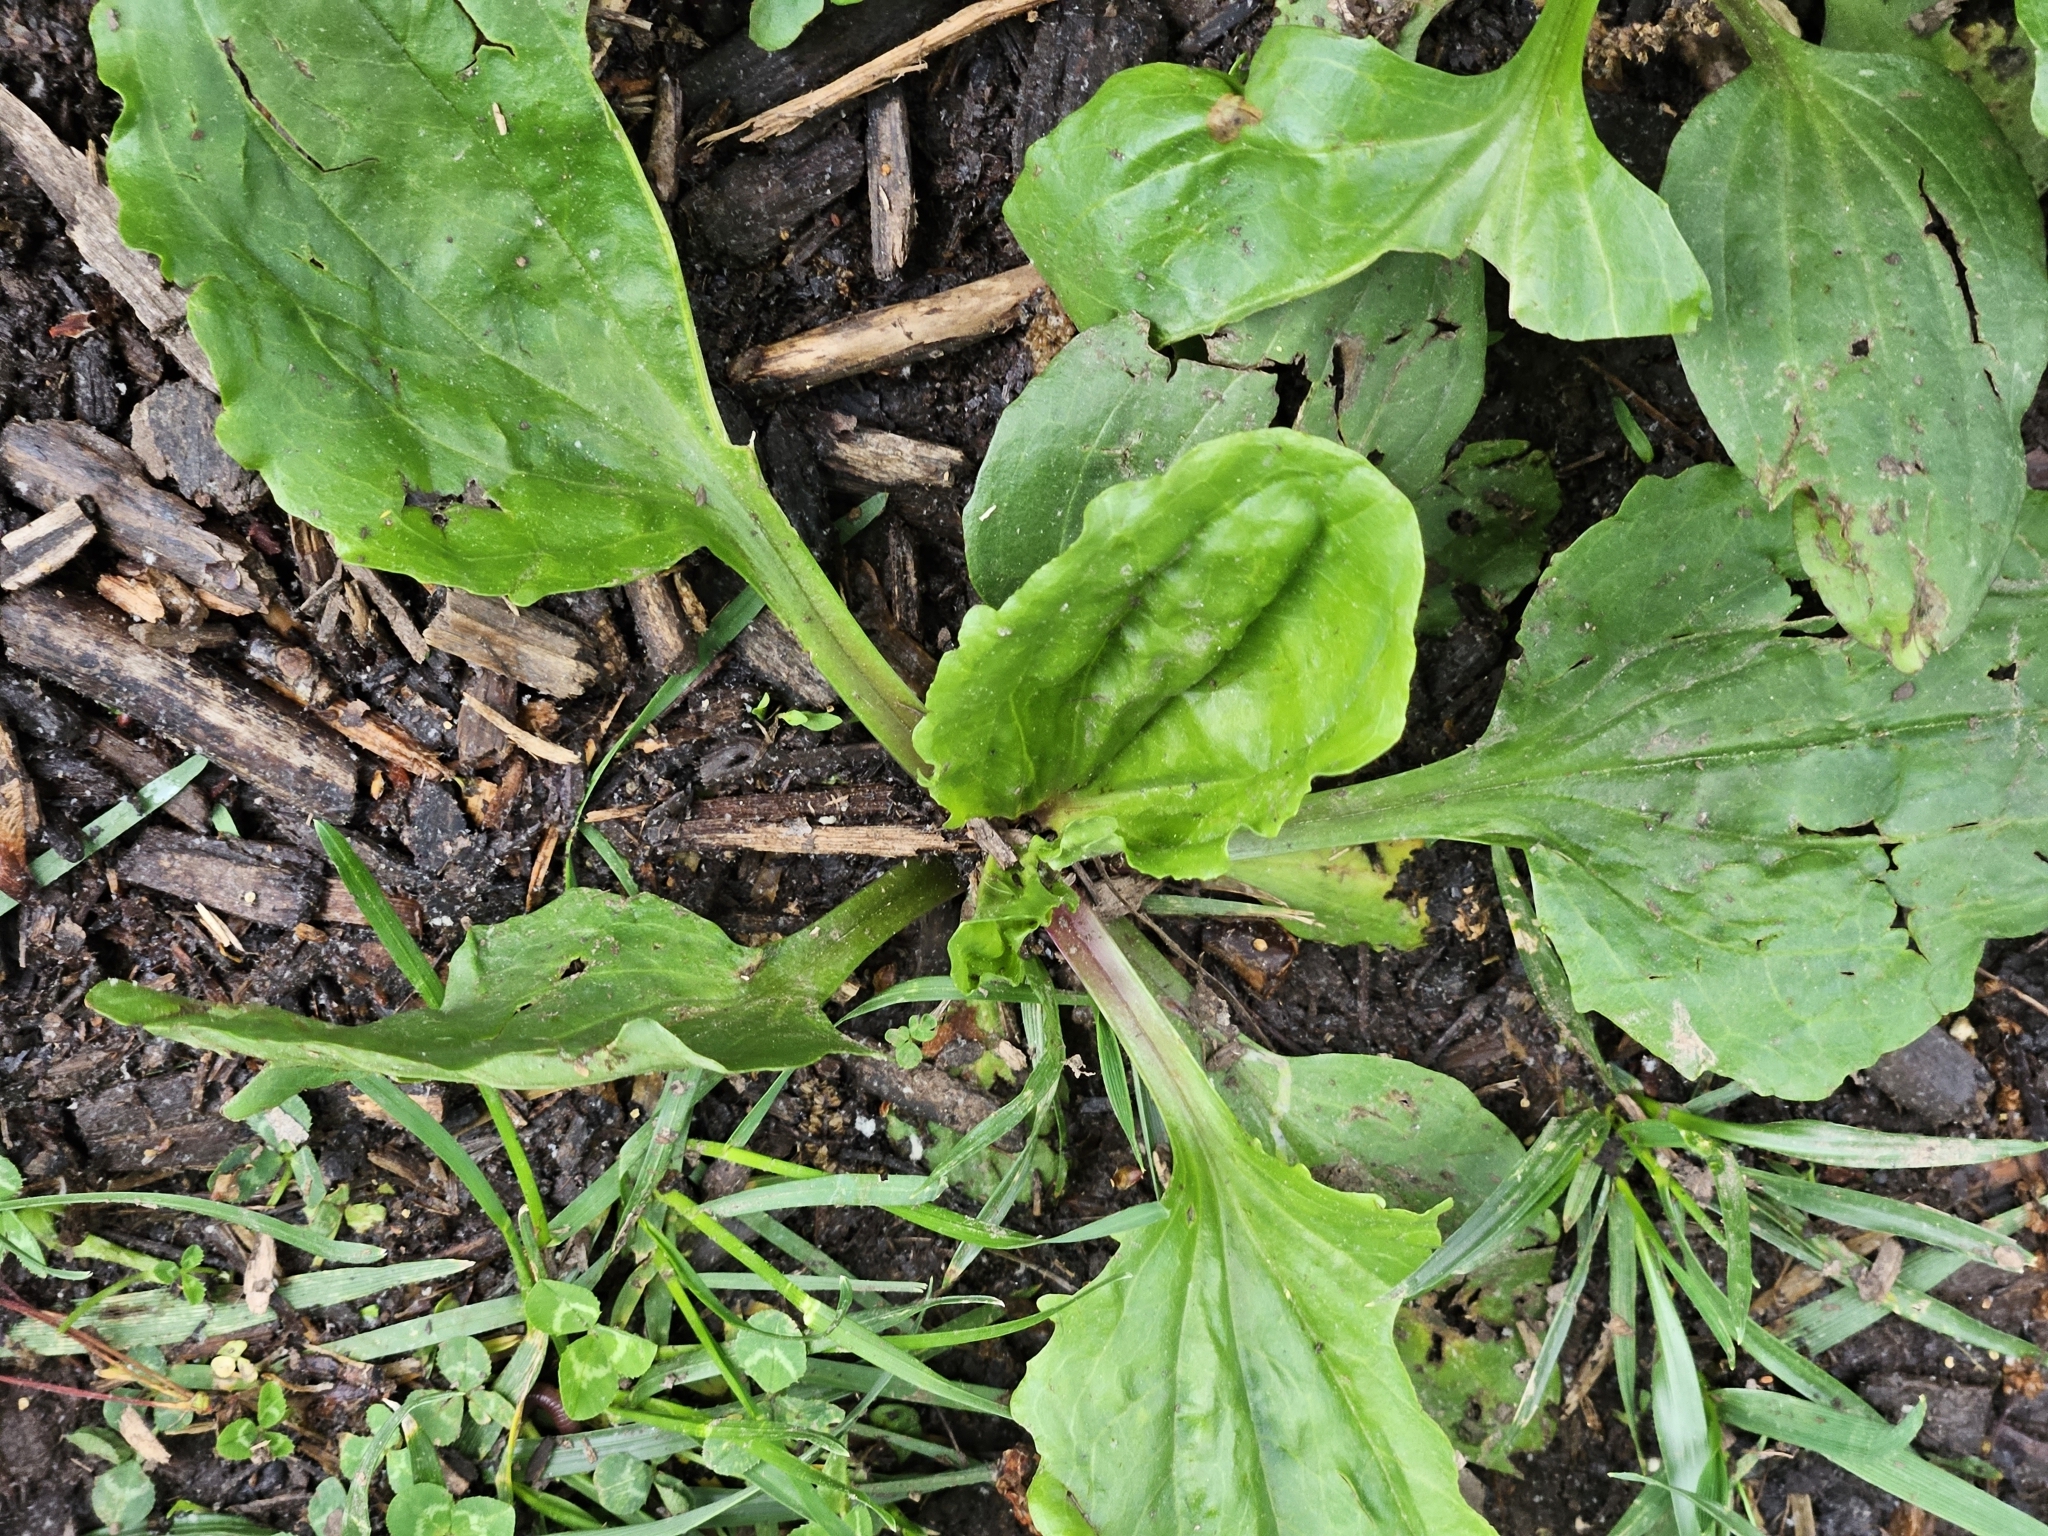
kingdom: Plantae
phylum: Tracheophyta
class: Magnoliopsida
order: Lamiales
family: Plantaginaceae
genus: Plantago
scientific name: Plantago rugelii
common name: American plantain
